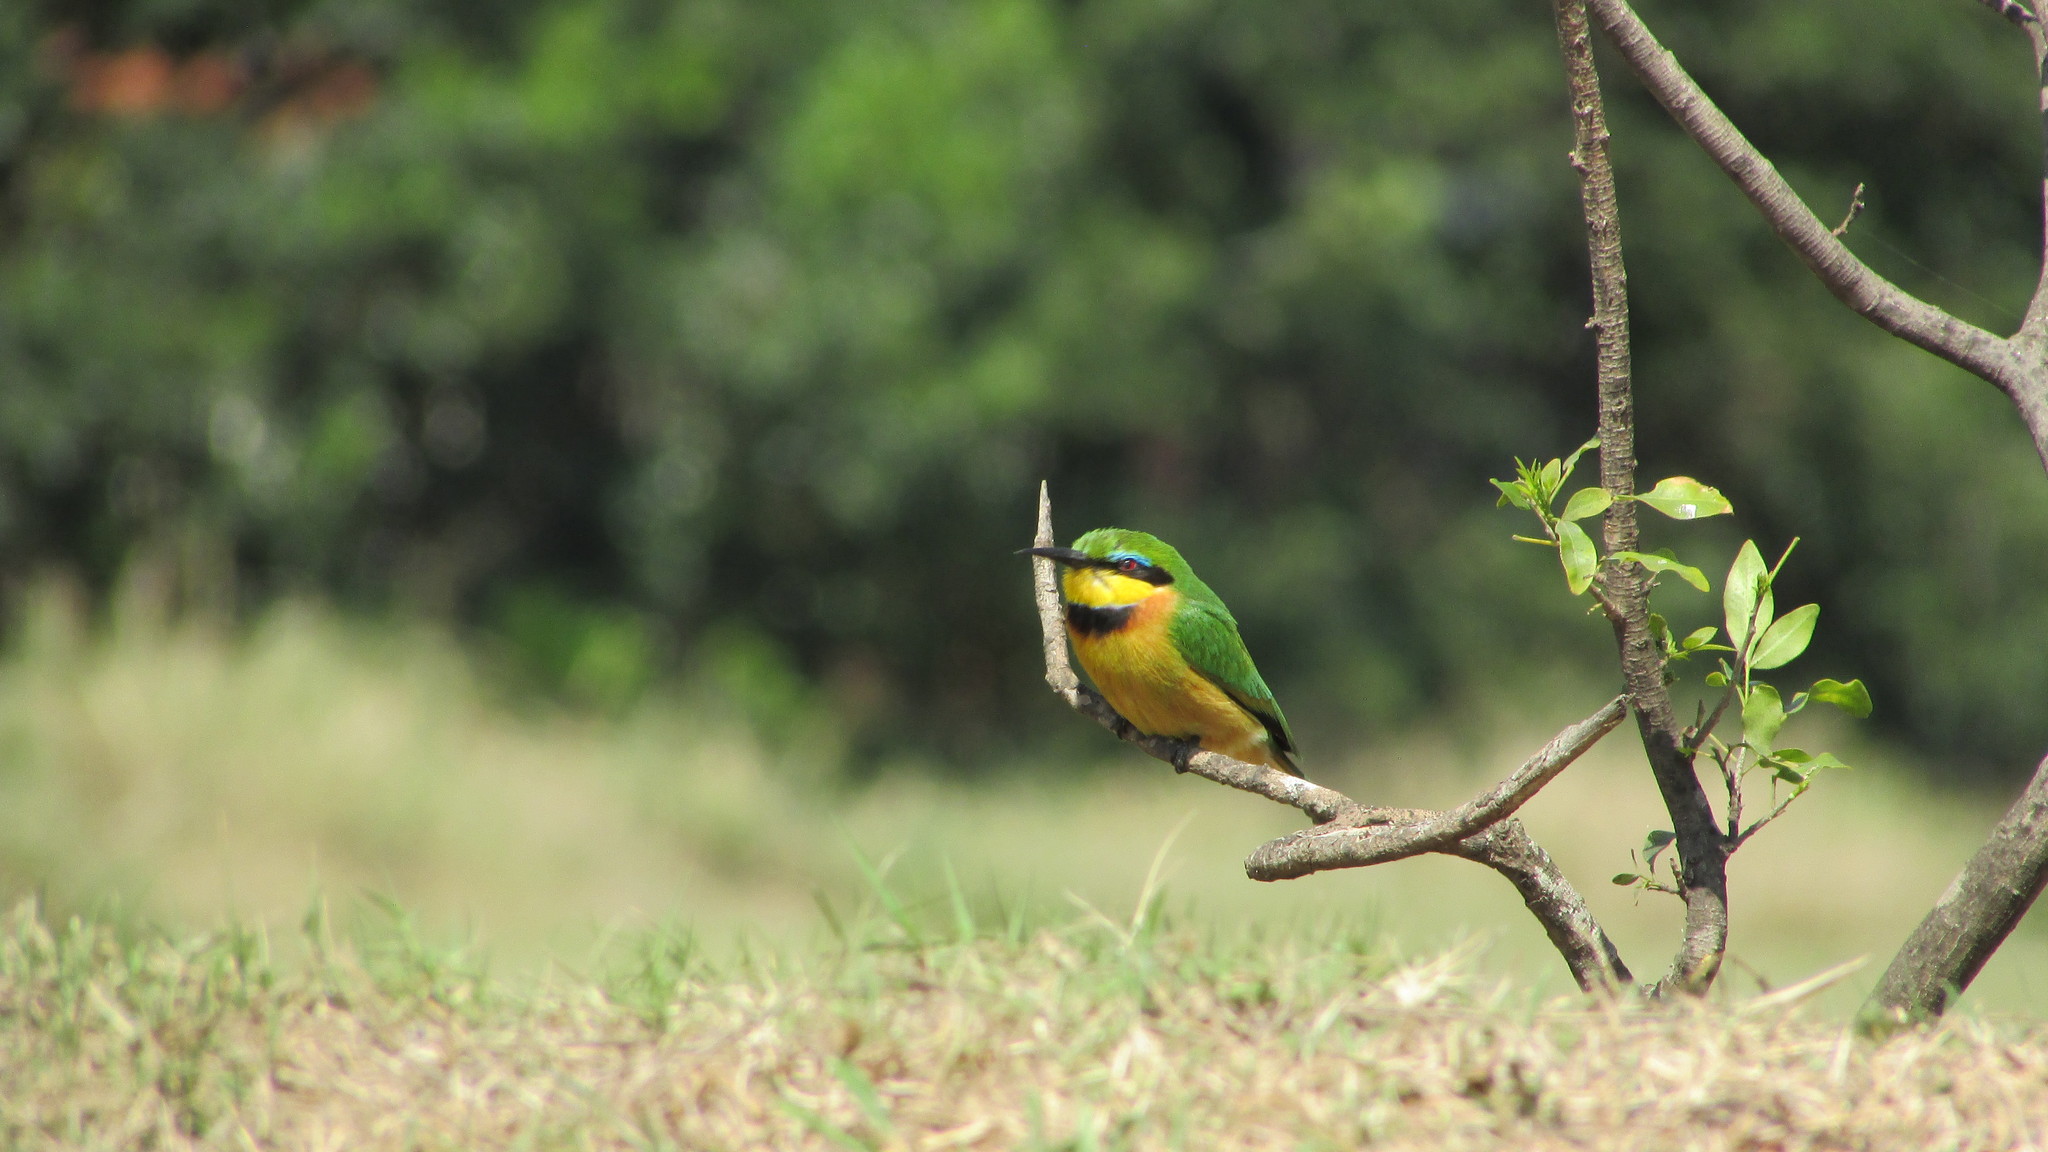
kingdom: Animalia
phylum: Chordata
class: Aves
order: Coraciiformes
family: Meropidae
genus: Merops
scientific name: Merops pusillus
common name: Little bee-eater
